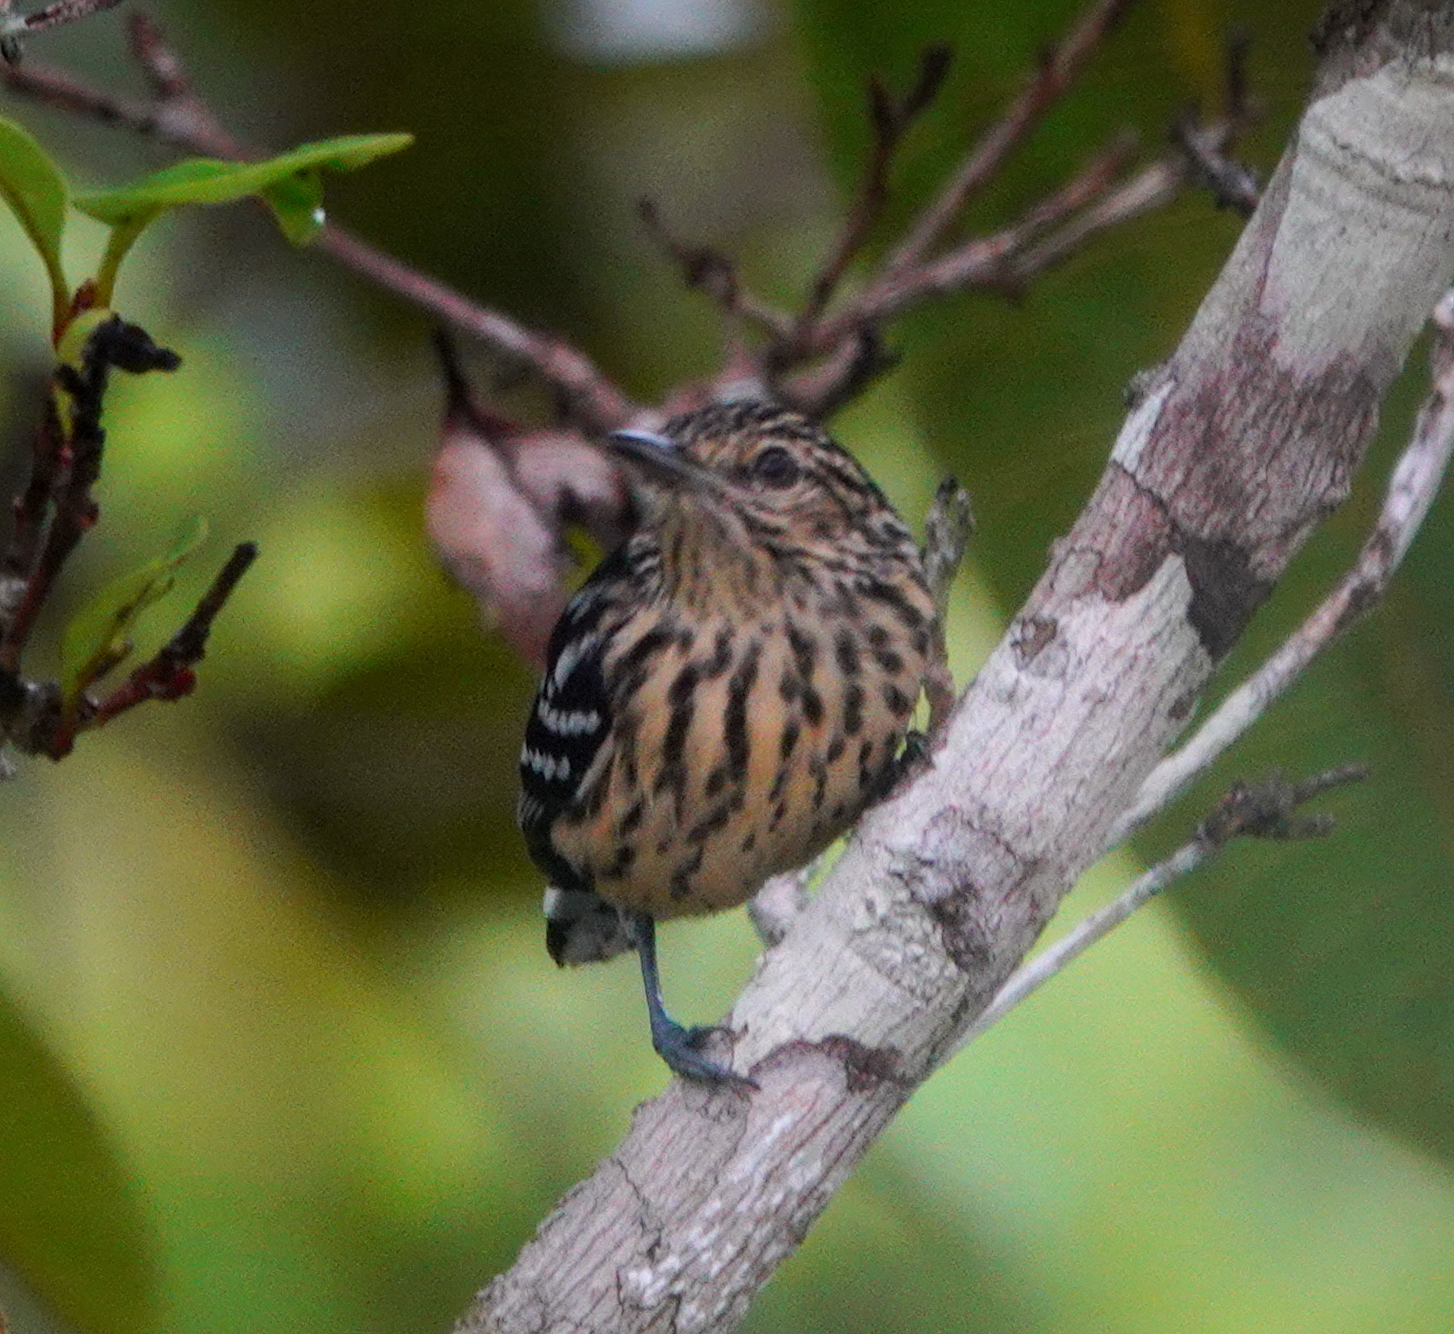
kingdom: Animalia
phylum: Chordata
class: Aves
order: Passeriformes
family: Thamnophilidae
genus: Myrmotherula
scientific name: Myrmotherula cherriei
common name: Cherrie's antwren
